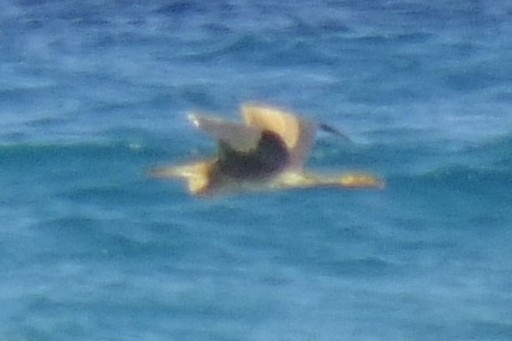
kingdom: Animalia
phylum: Chordata
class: Aves
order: Pelecaniformes
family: Ardeidae
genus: Ardea
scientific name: Ardea purpurea
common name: Purple heron
